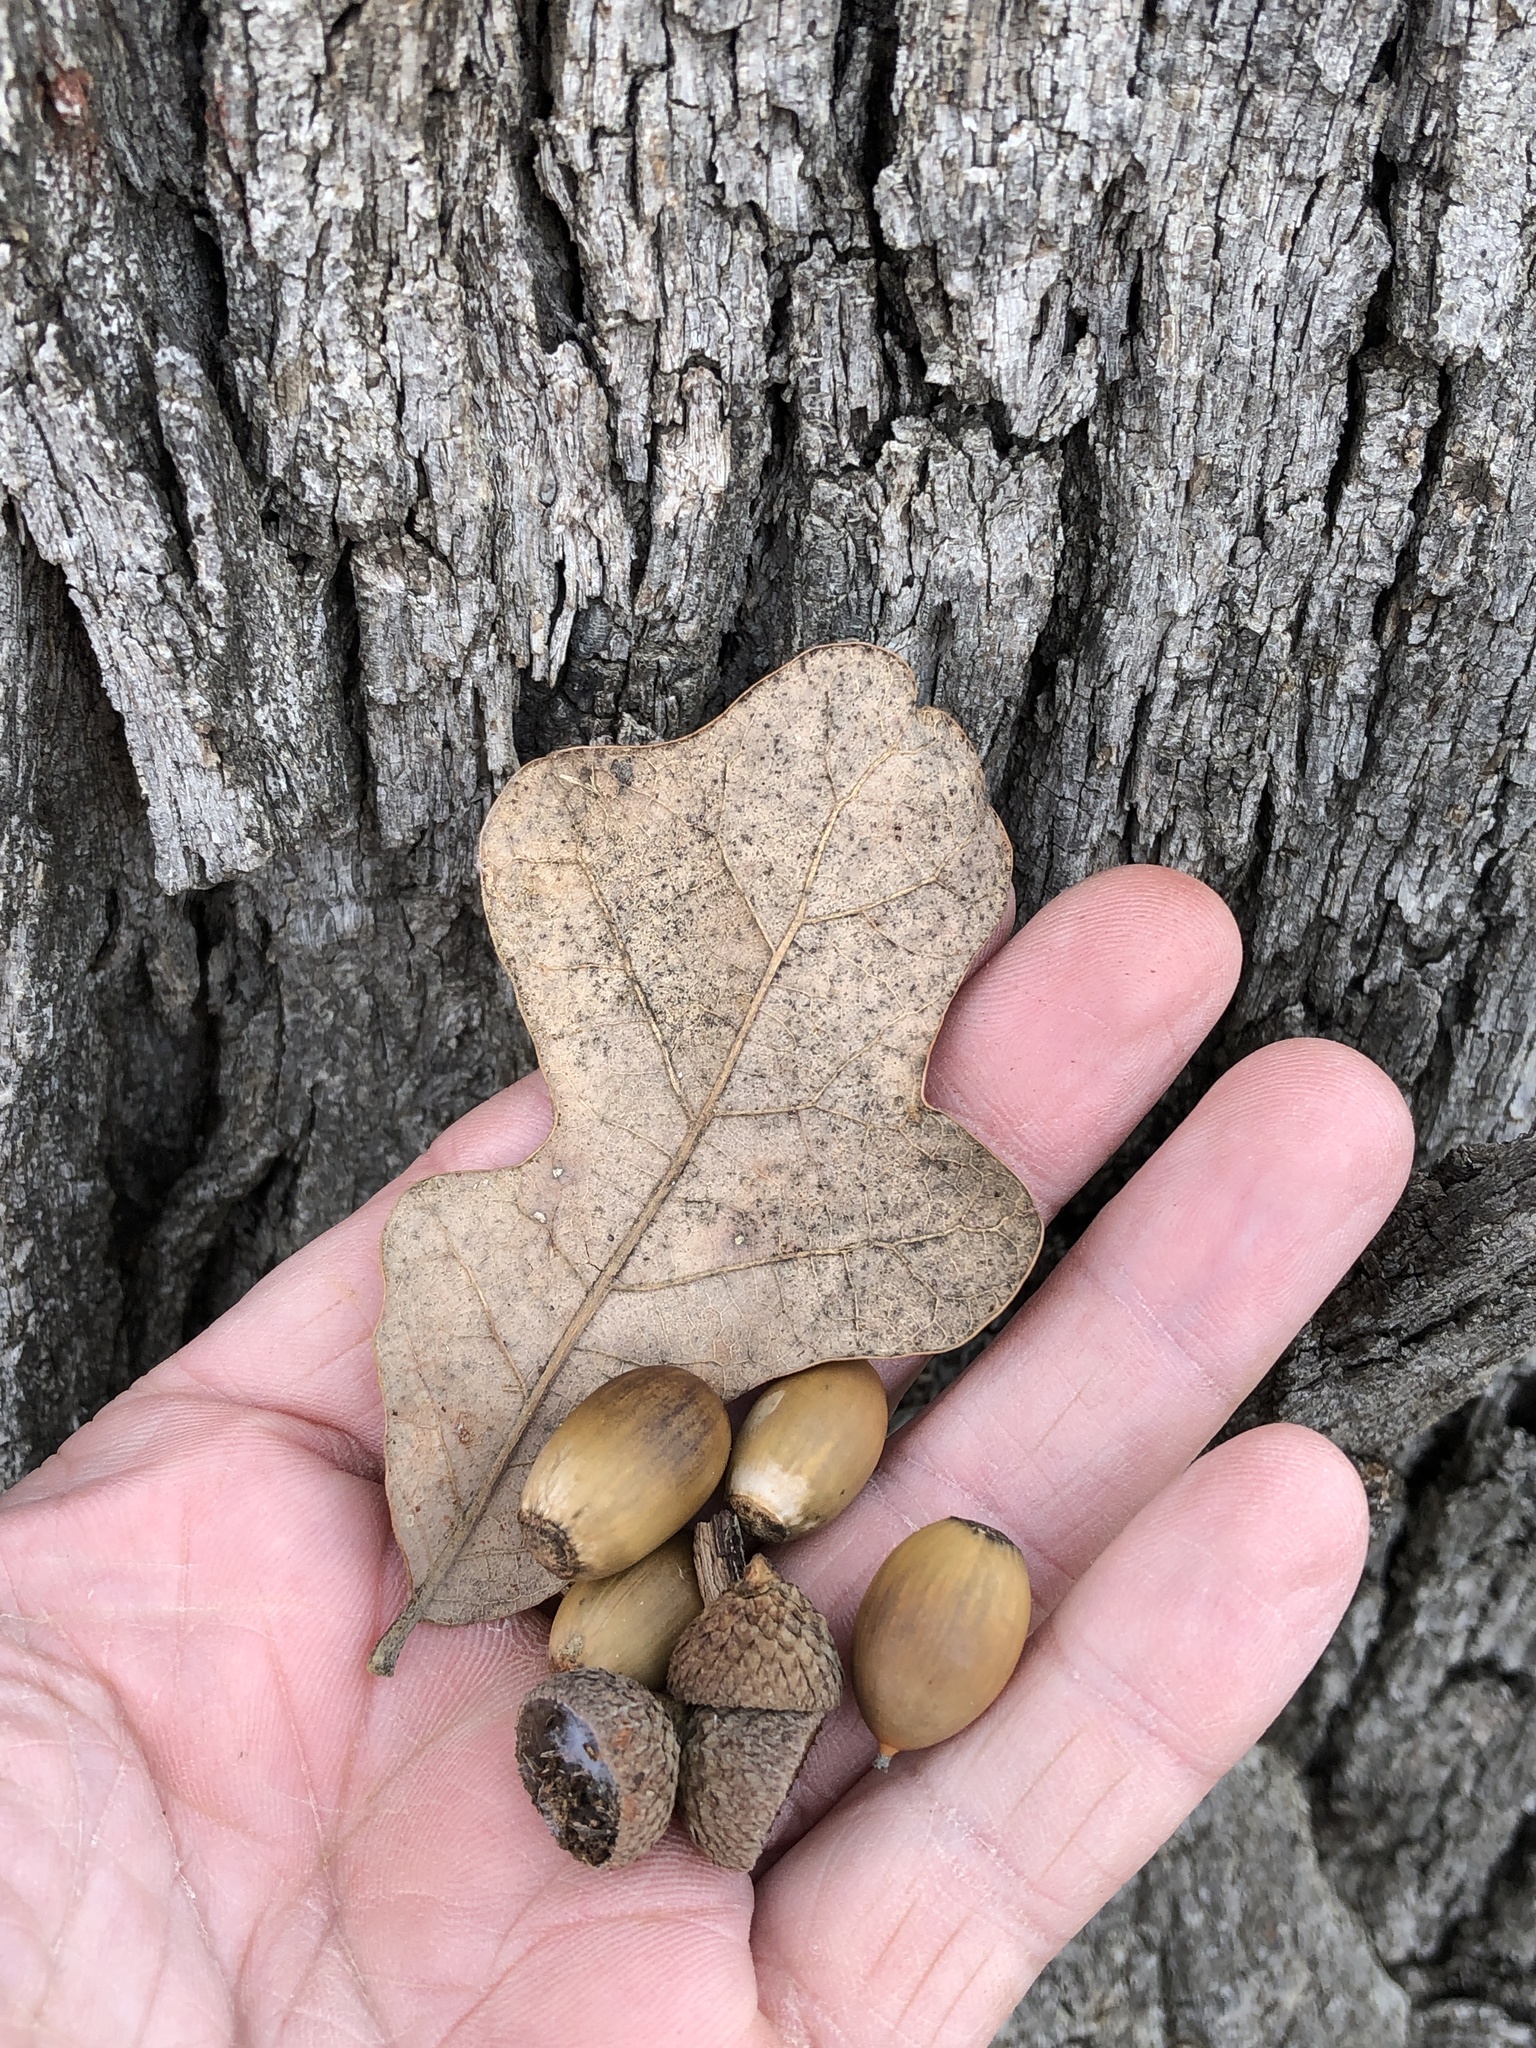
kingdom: Plantae
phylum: Tracheophyta
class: Magnoliopsida
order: Fagales
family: Fagaceae
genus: Quercus
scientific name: Quercus stellata
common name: Post oak
